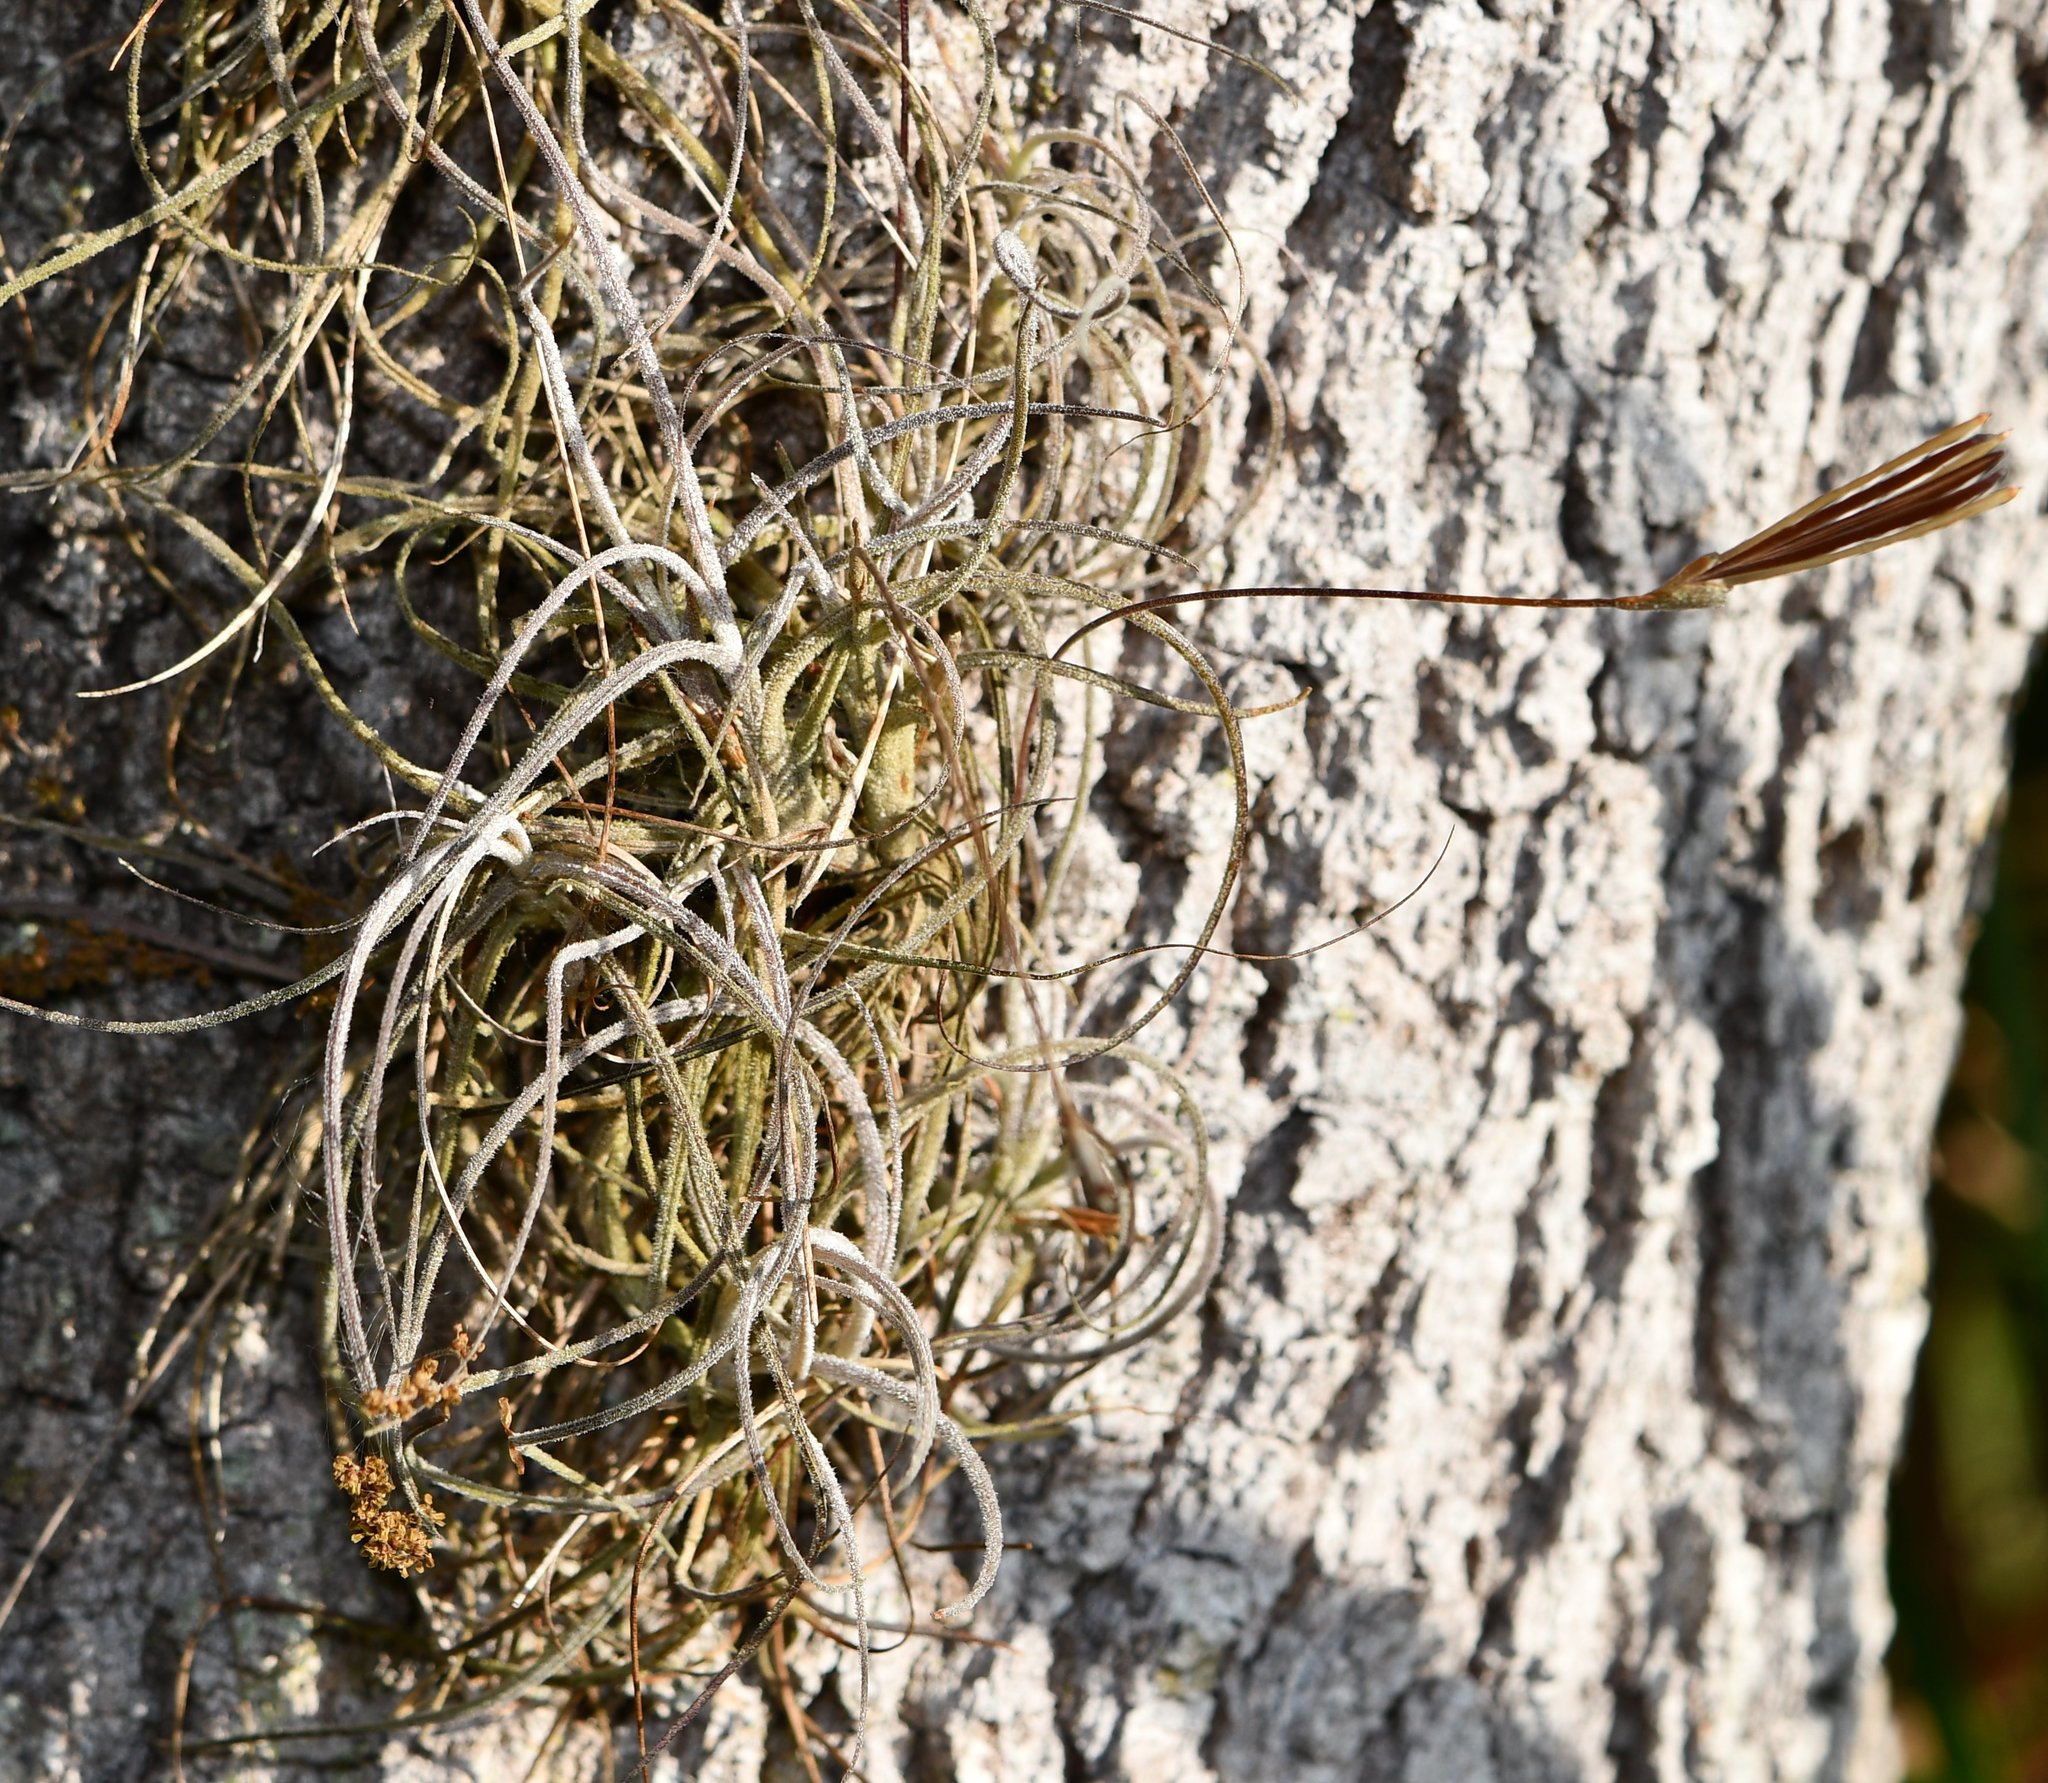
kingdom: Plantae
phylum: Tracheophyta
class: Liliopsida
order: Poales
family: Bromeliaceae
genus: Tillandsia
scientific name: Tillandsia recurvata
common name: Small ballmoss
